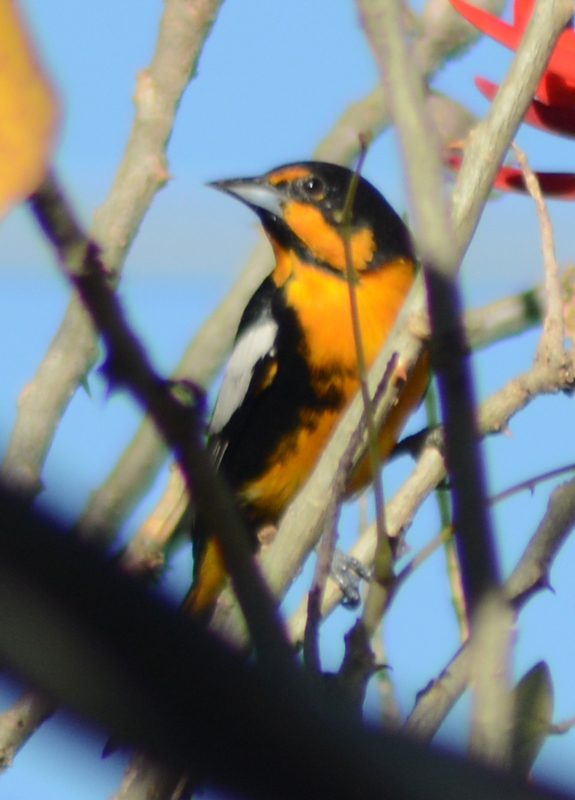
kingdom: Animalia
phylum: Chordata
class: Aves
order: Passeriformes
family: Icteridae
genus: Icterus
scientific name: Icterus abeillei
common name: Black-backed oriole
